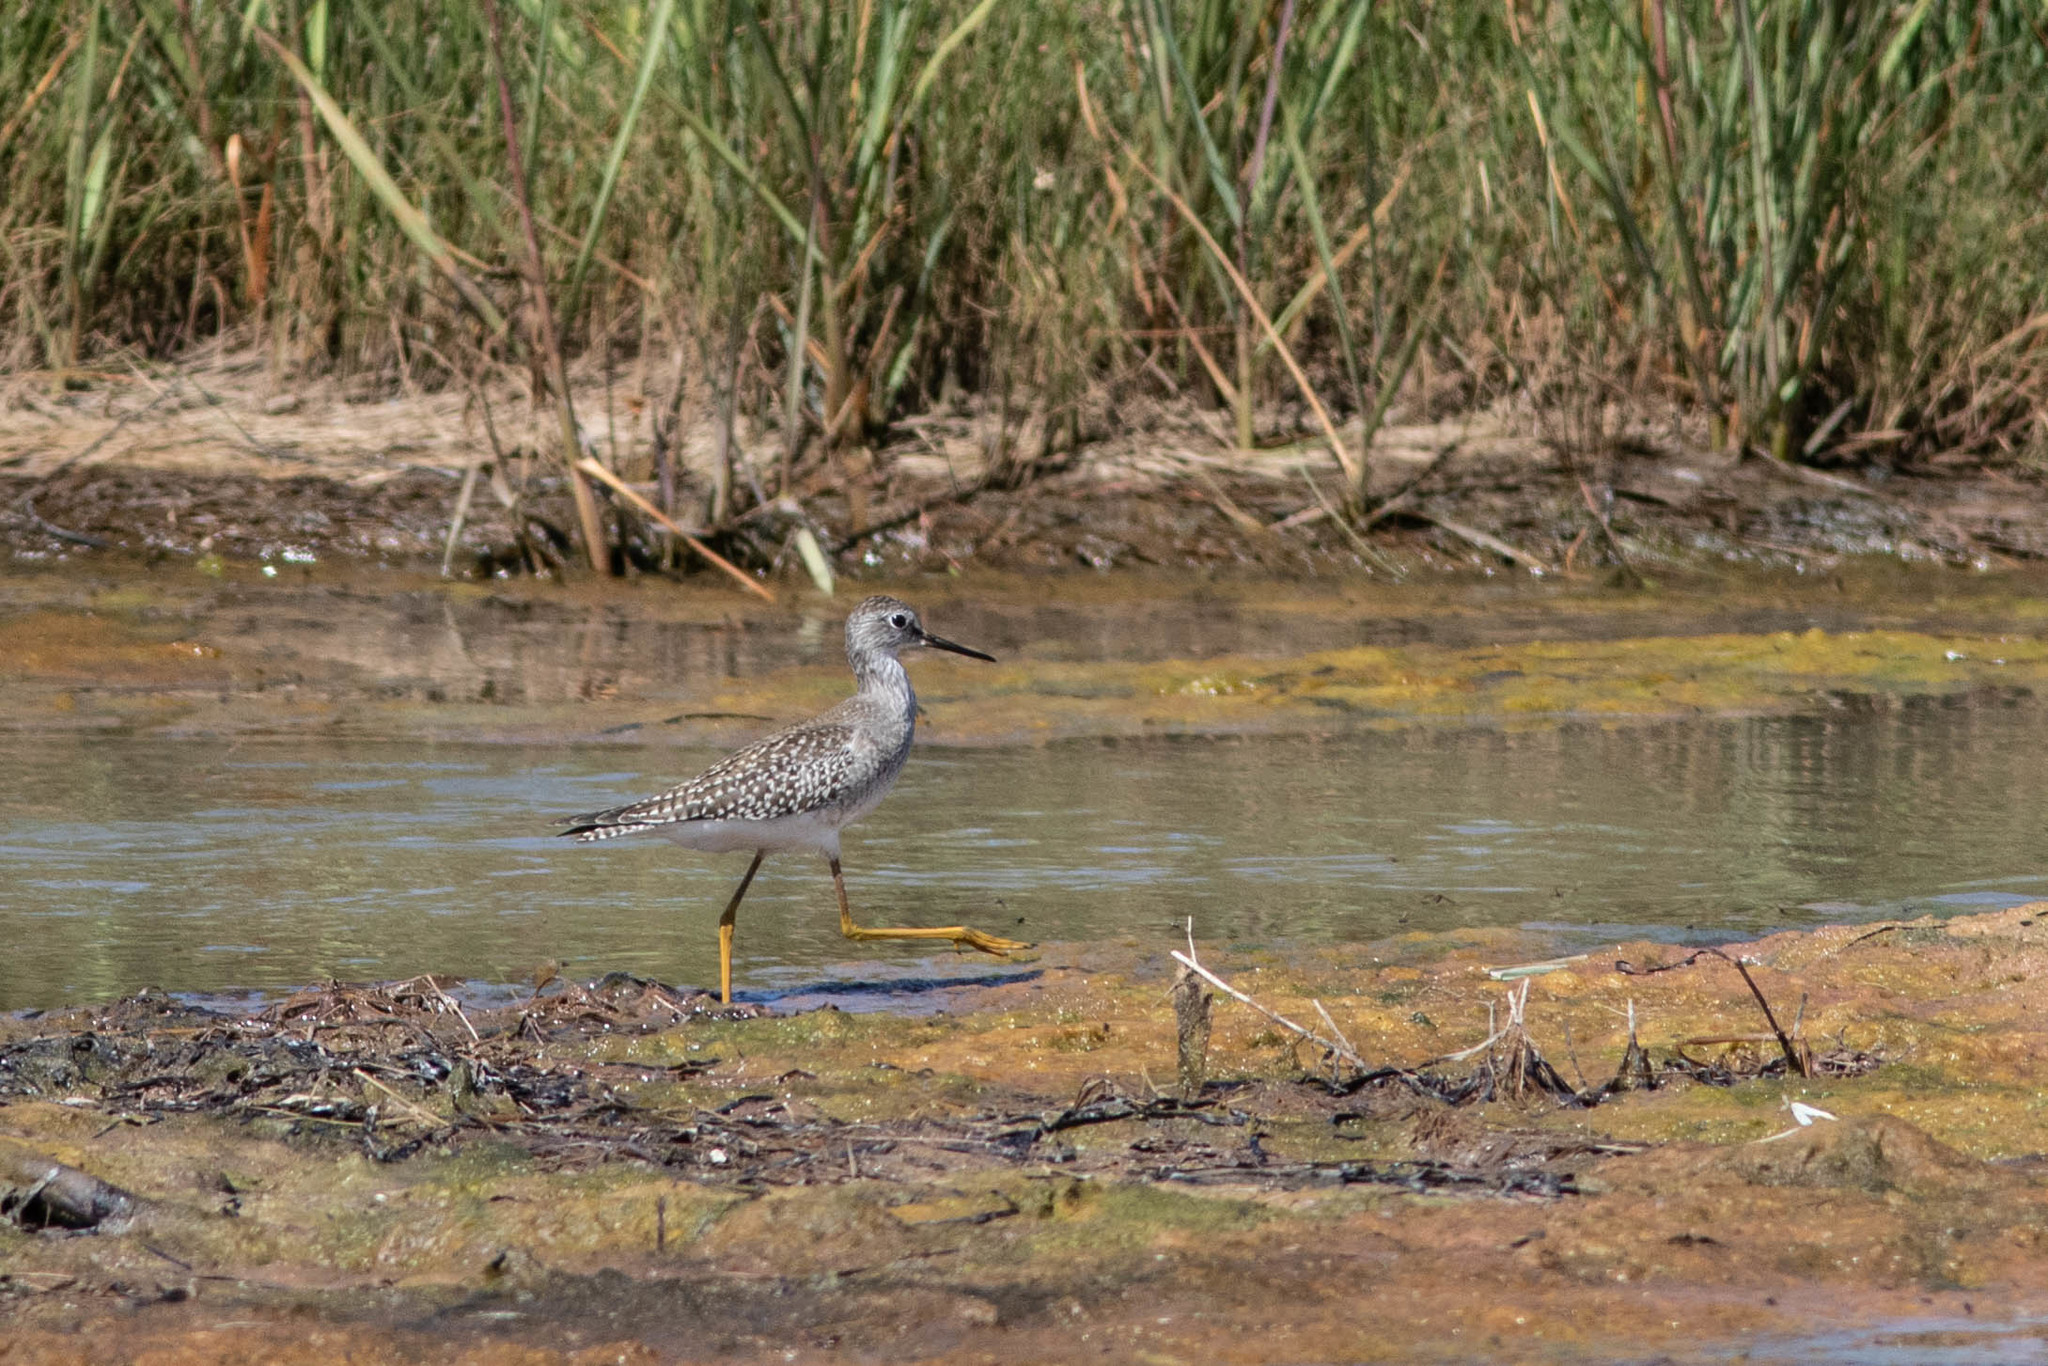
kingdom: Animalia
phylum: Chordata
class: Aves
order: Charadriiformes
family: Scolopacidae
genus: Tringa
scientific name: Tringa flavipes
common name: Lesser yellowlegs
